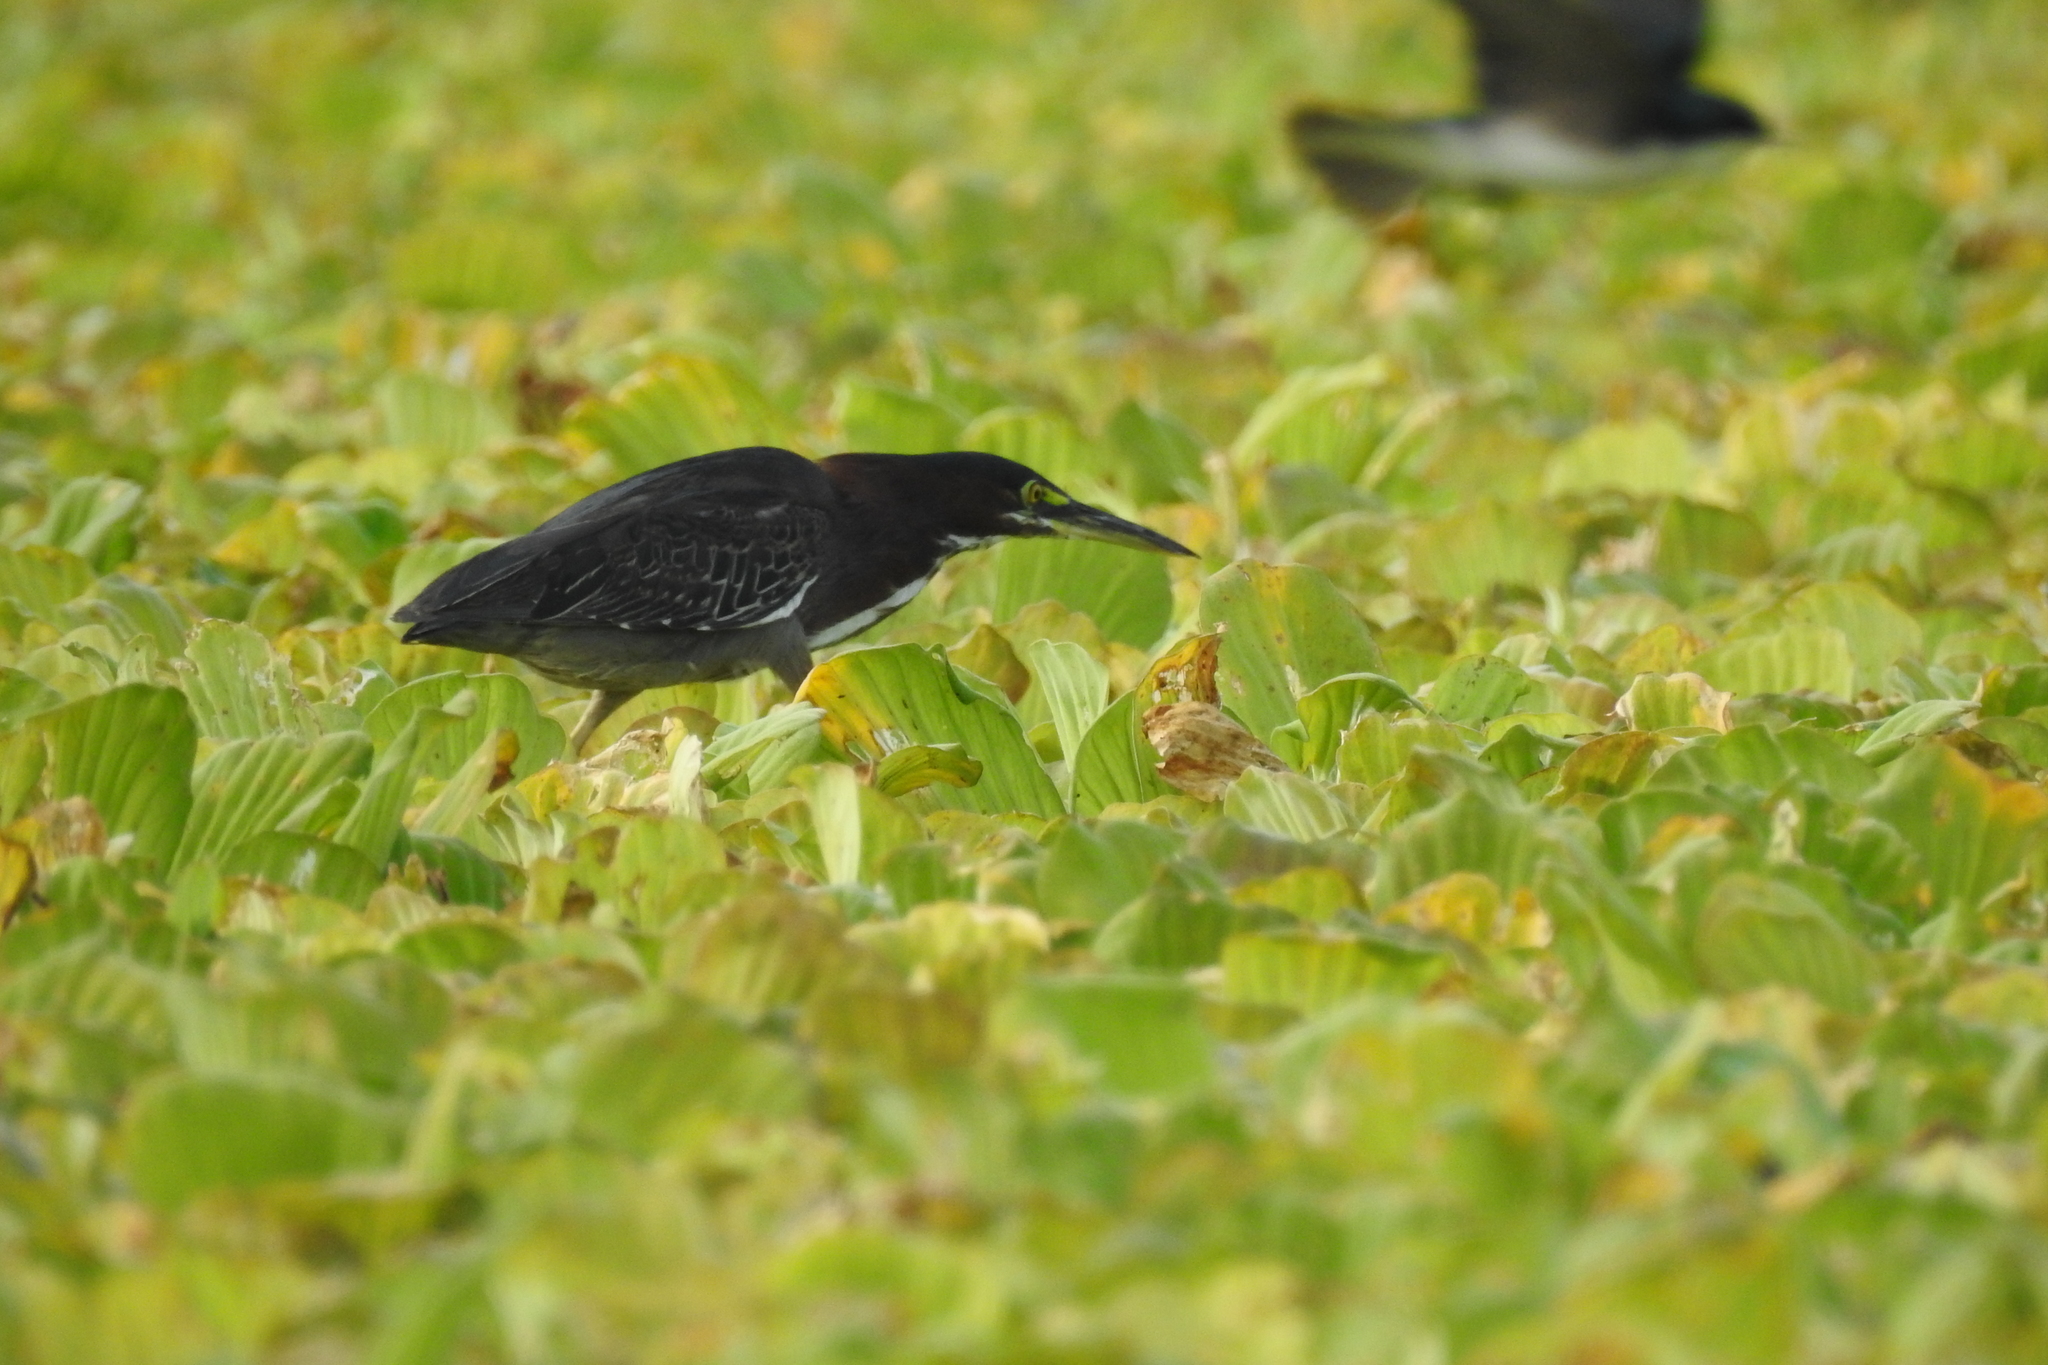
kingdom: Animalia
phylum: Chordata
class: Aves
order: Pelecaniformes
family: Ardeidae
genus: Butorides
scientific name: Butorides virescens
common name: Green heron
